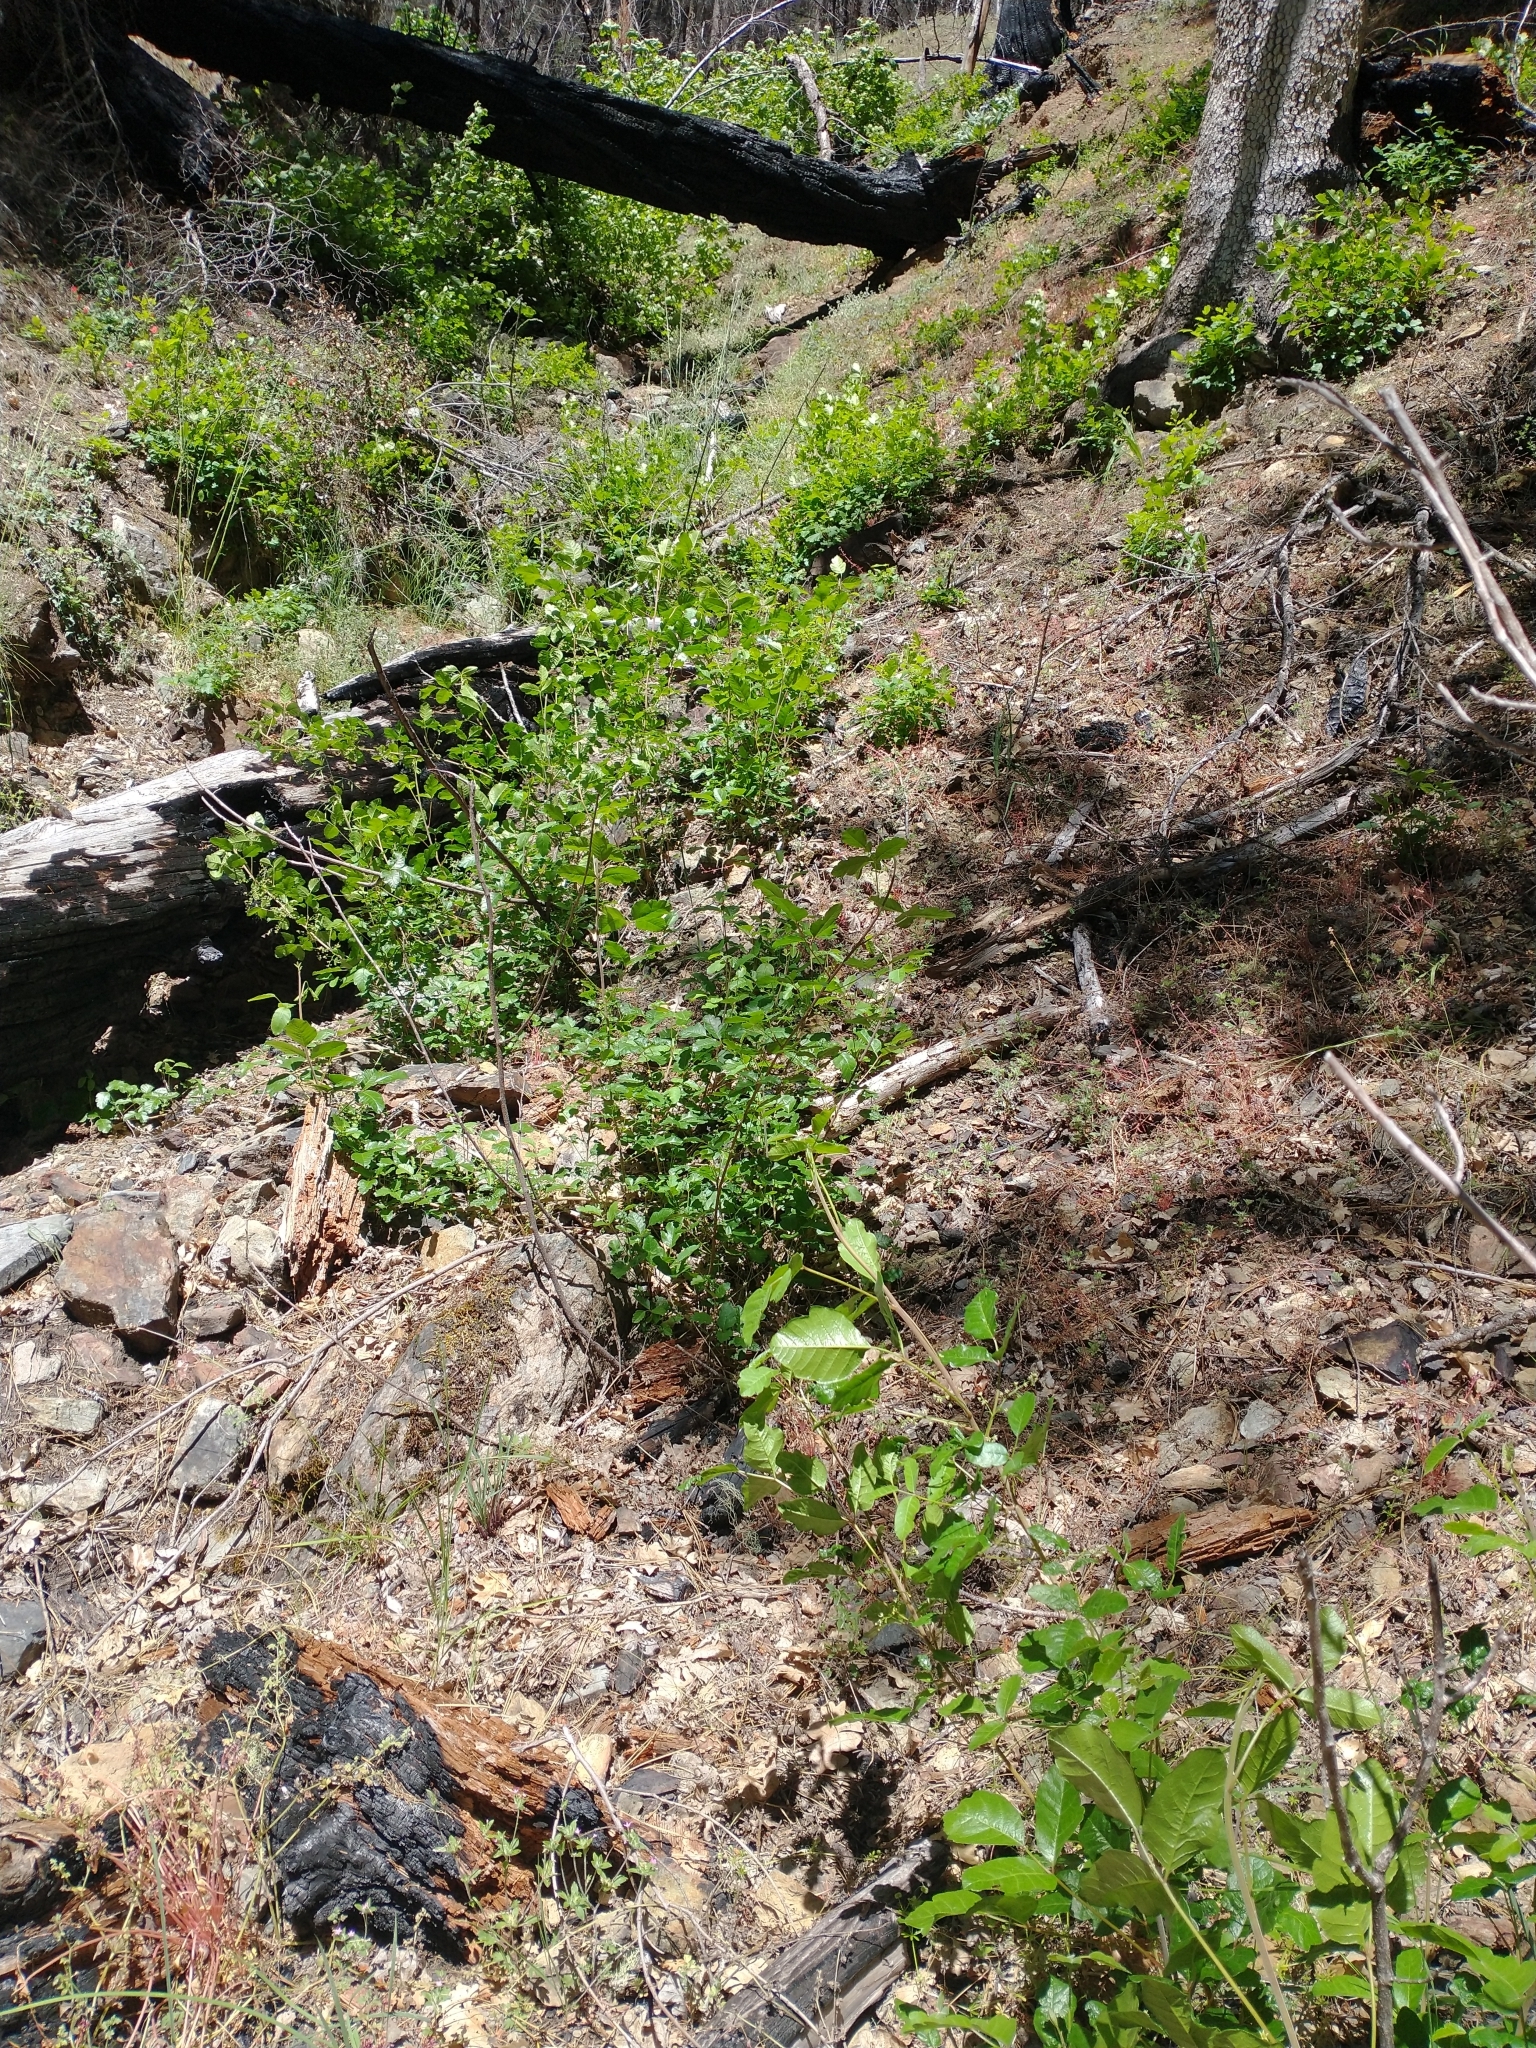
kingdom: Plantae
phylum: Tracheophyta
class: Magnoliopsida
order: Sapindales
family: Anacardiaceae
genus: Toxicodendron
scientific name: Toxicodendron diversilobum
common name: Pacific poison-oak
